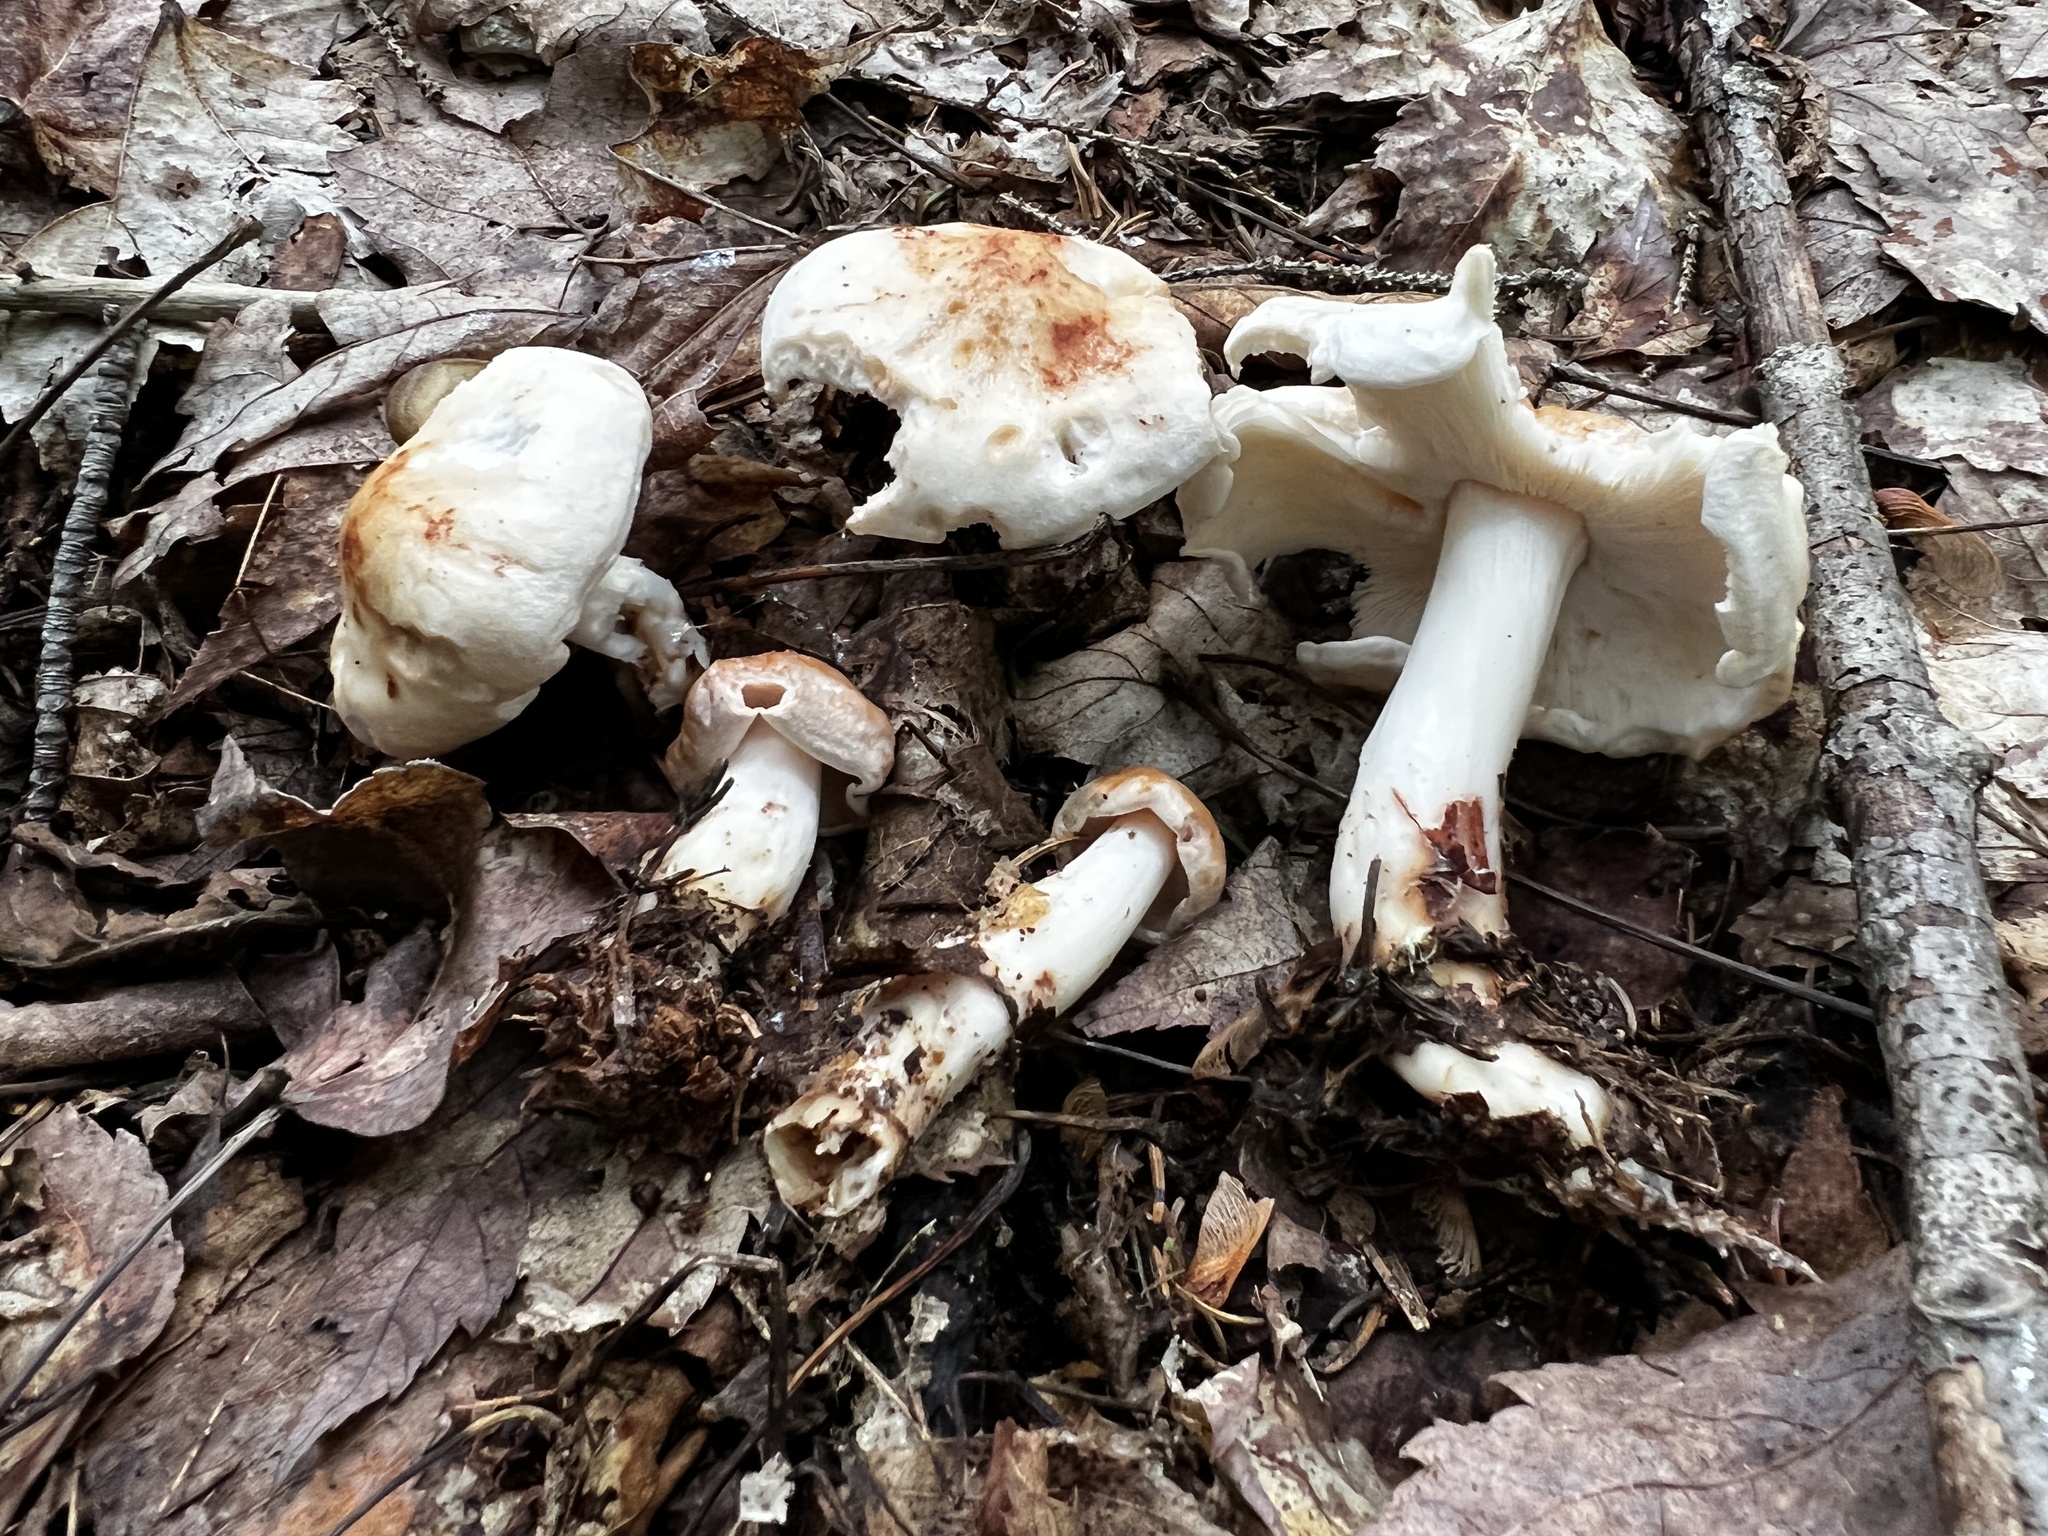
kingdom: Fungi
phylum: Basidiomycota
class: Agaricomycetes
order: Agaricales
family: Omphalotaceae
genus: Rhodocollybia
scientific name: Rhodocollybia maculata
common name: Spotted tough-shank
